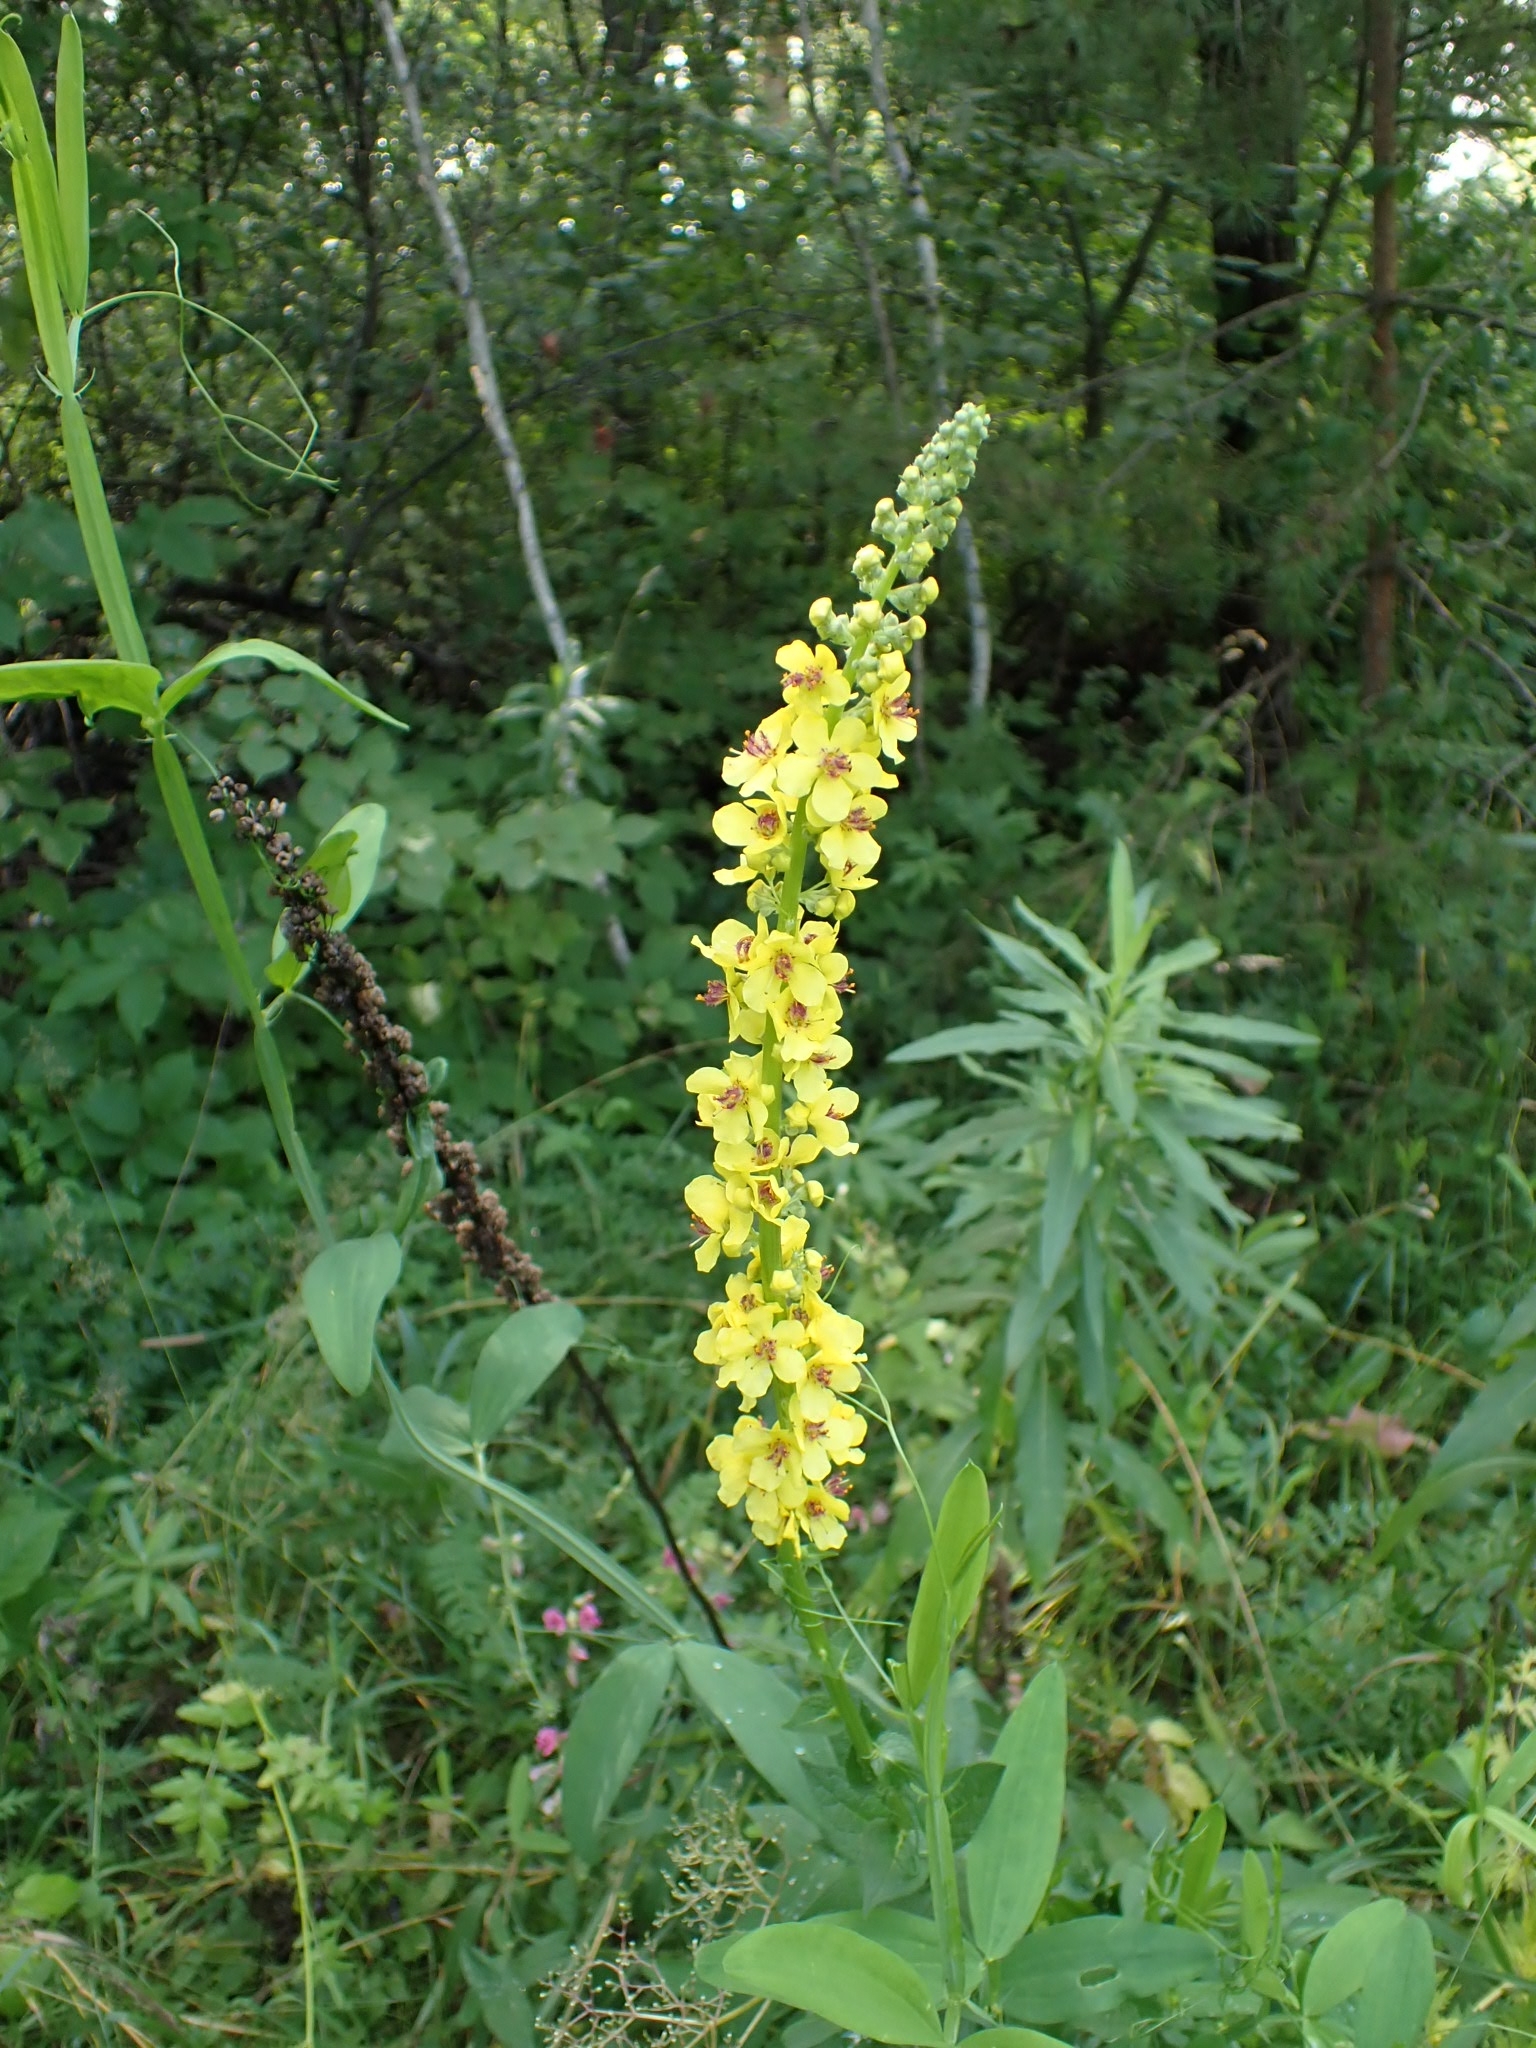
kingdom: Plantae
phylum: Tracheophyta
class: Magnoliopsida
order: Lamiales
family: Scrophulariaceae
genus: Verbascum
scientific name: Verbascum nigrum
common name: Dark mullein
